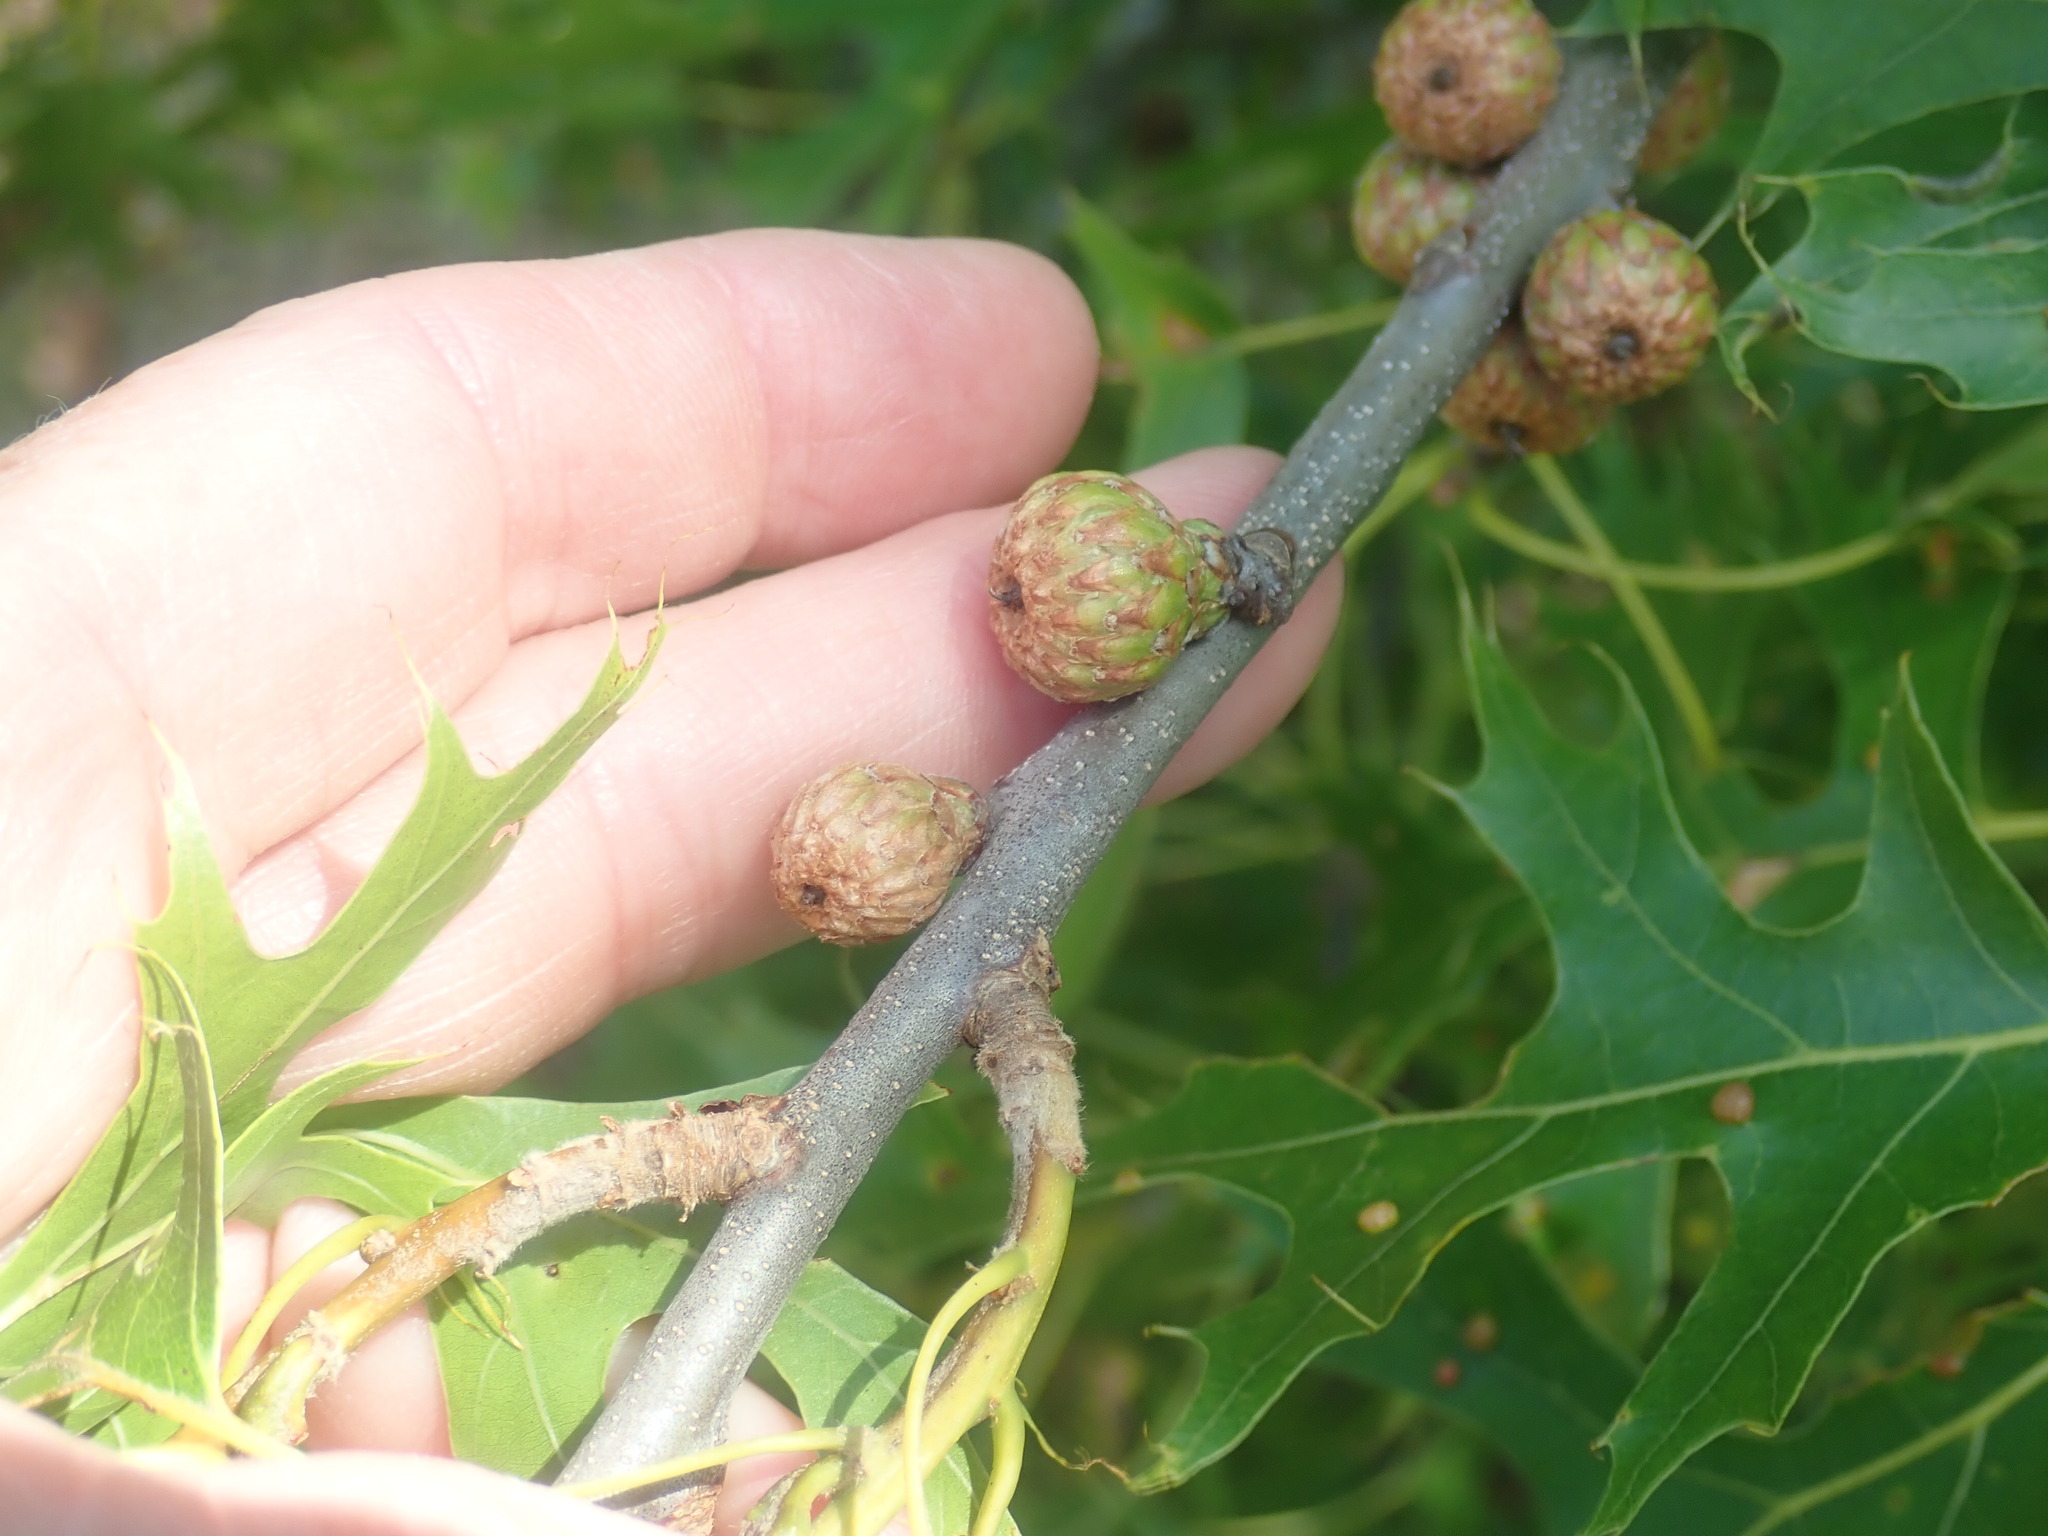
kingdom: Plantae
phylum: Tracheophyta
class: Magnoliopsida
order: Fagales
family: Fagaceae
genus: Quercus
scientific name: Quercus coccinea
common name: Scarlet oak
